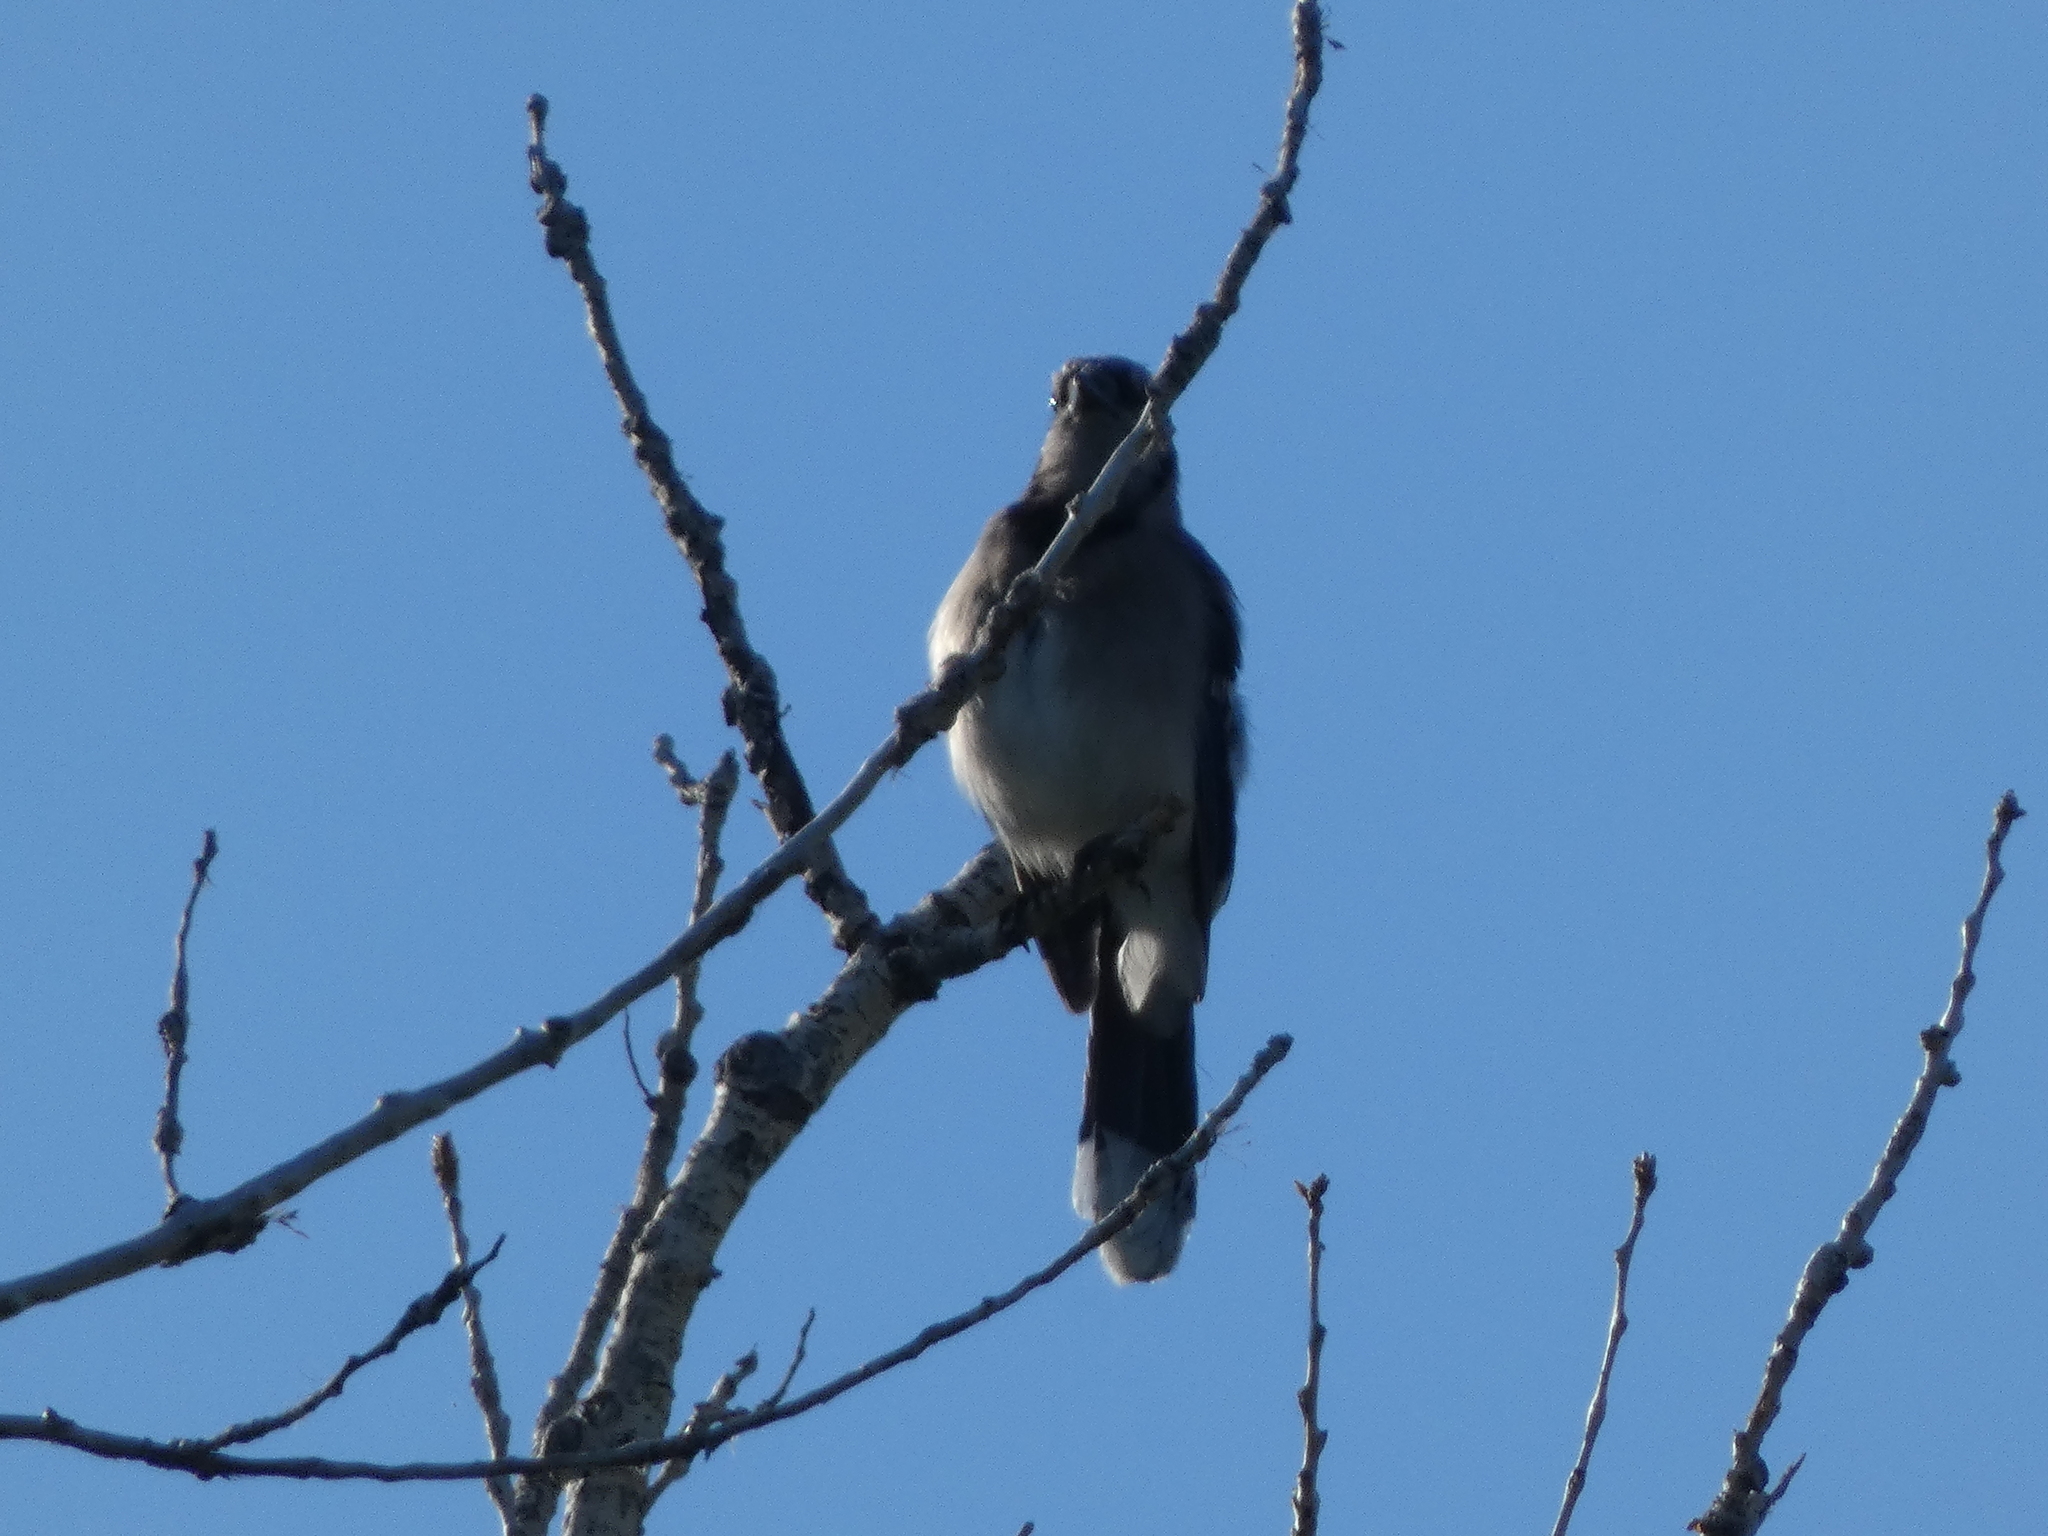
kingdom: Animalia
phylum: Chordata
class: Aves
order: Passeriformes
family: Corvidae
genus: Cyanocitta
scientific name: Cyanocitta cristata
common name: Blue jay
